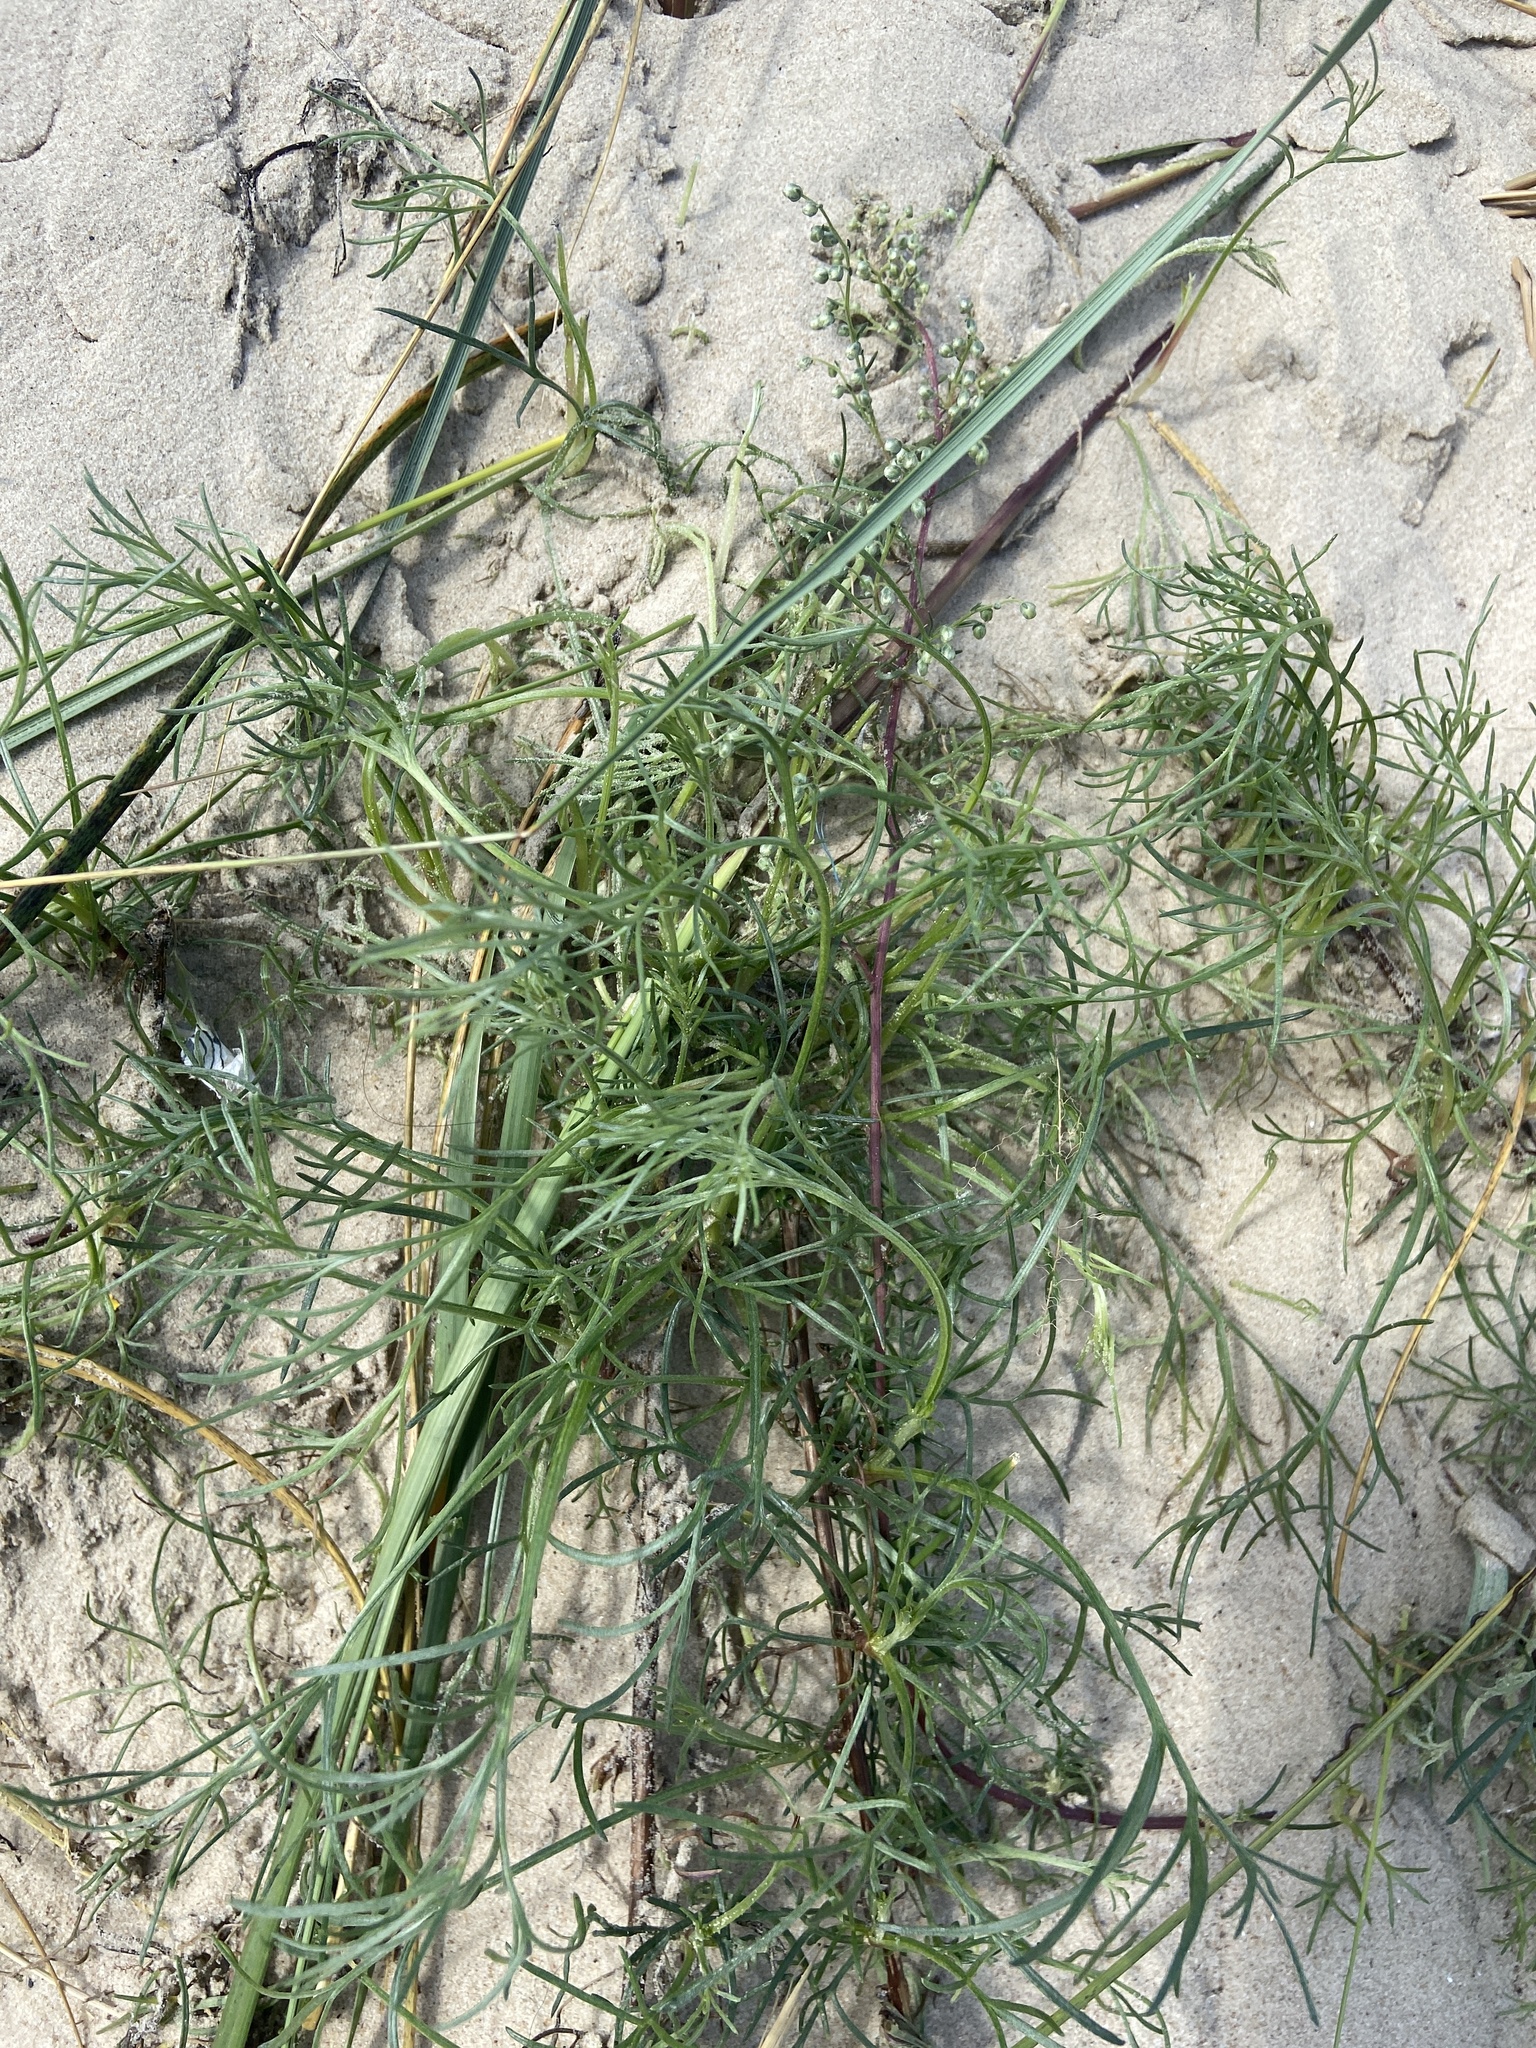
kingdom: Plantae
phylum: Tracheophyta
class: Magnoliopsida
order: Asterales
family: Asteraceae
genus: Artemisia
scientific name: Artemisia campestris
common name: Field wormwood
